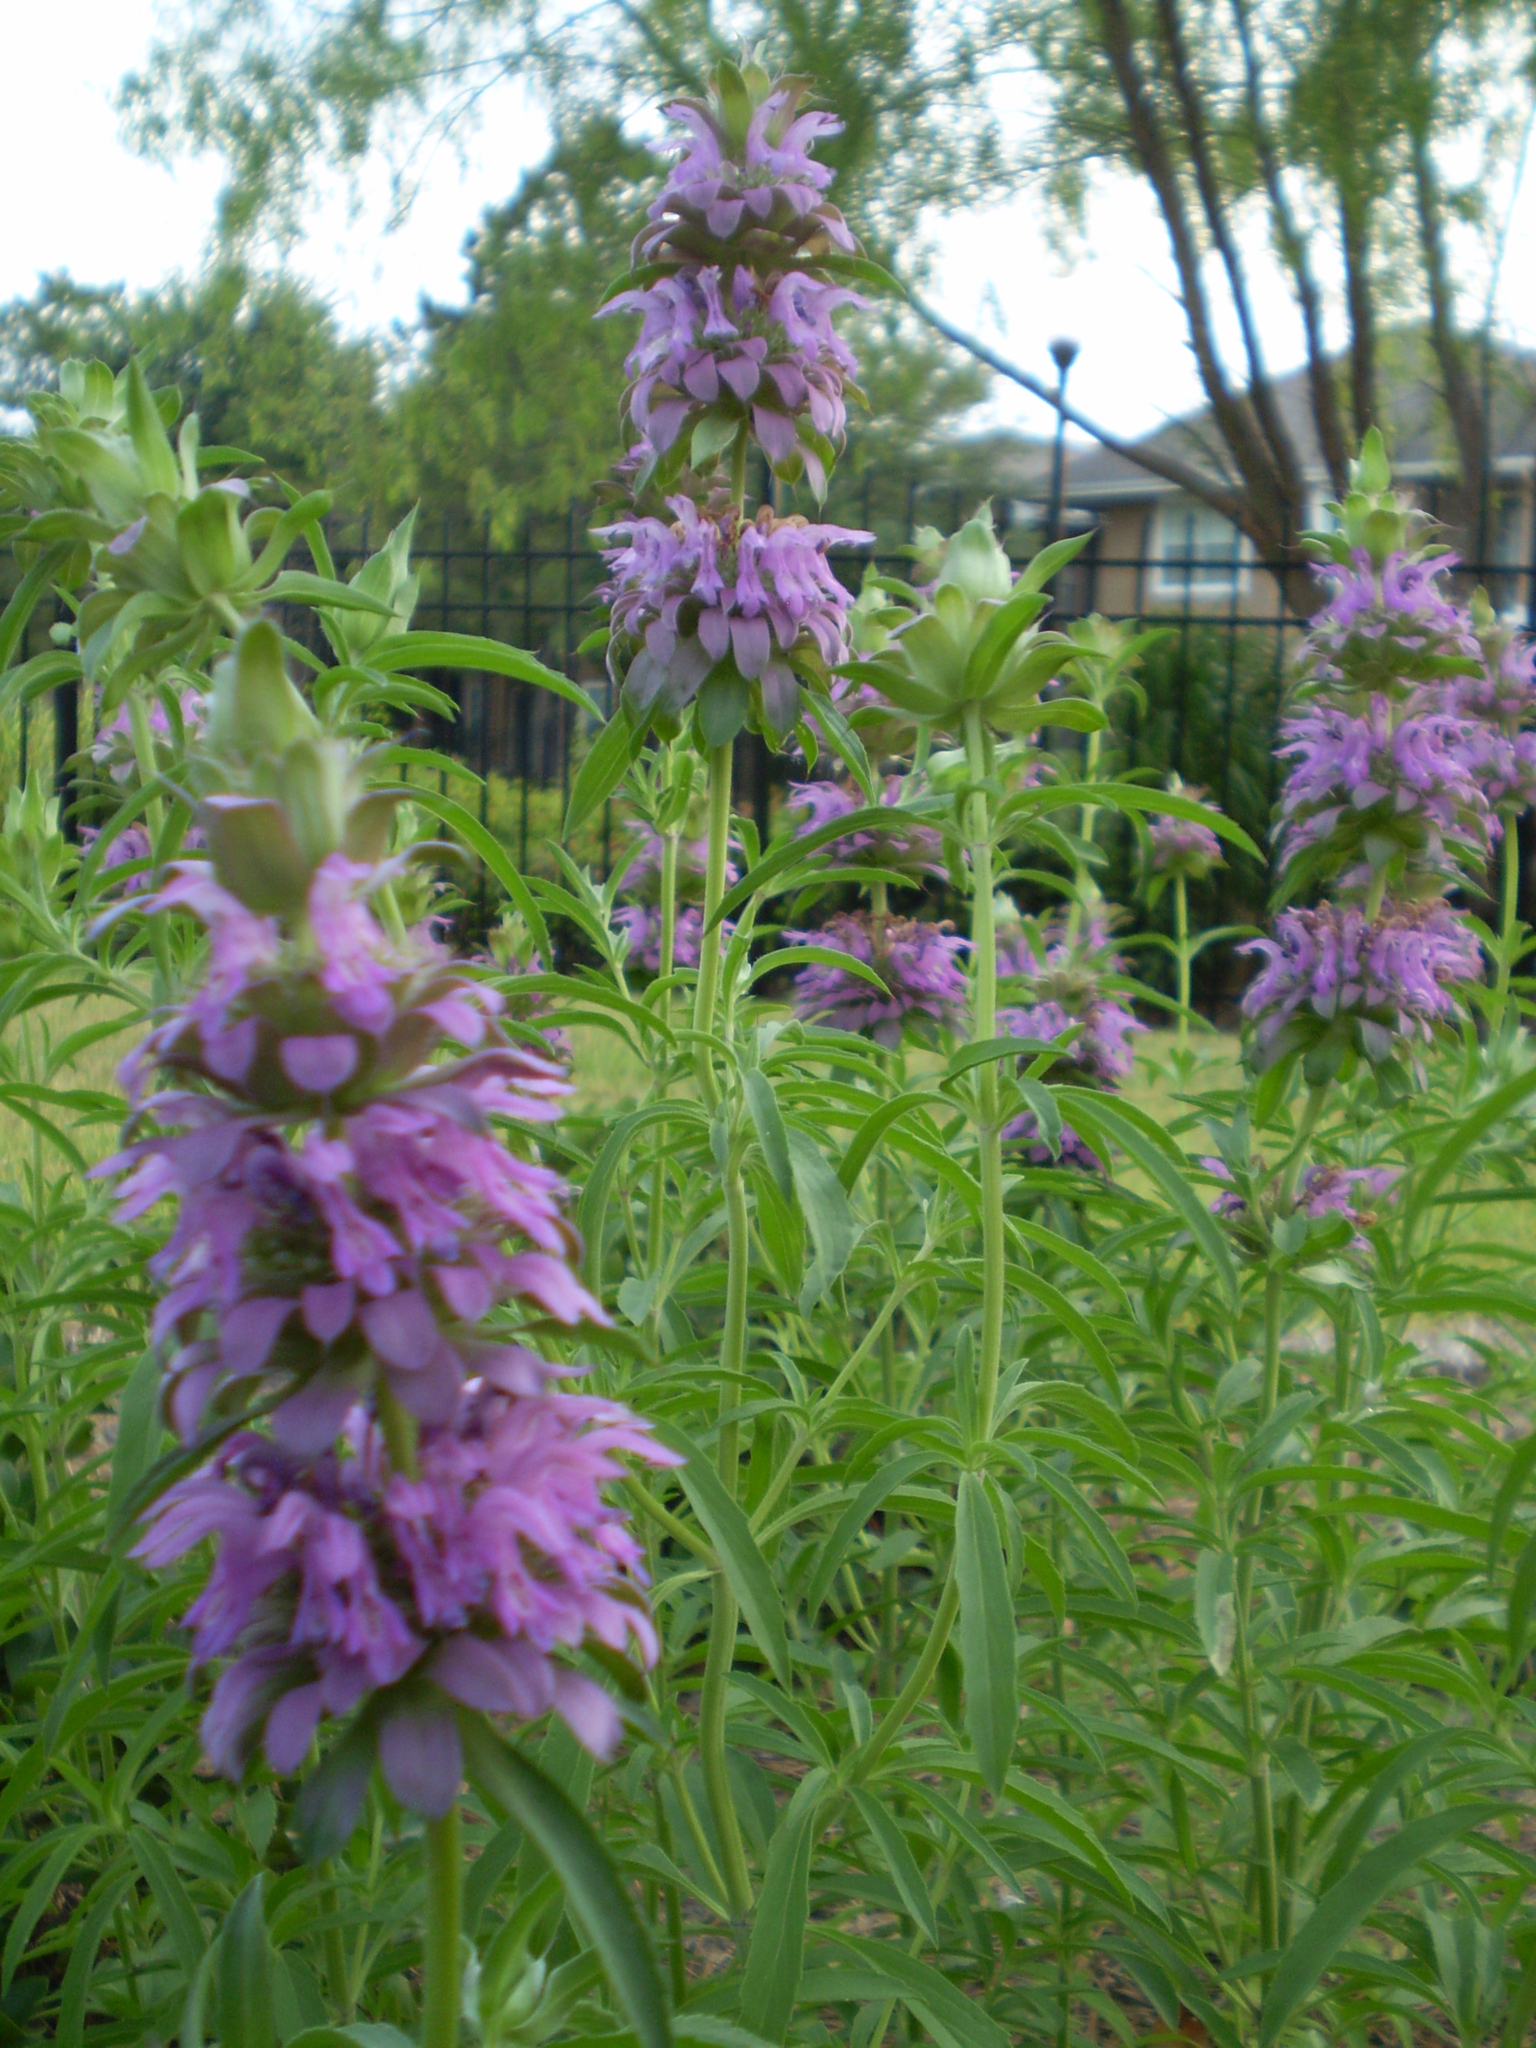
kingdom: Plantae
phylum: Tracheophyta
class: Magnoliopsida
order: Lamiales
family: Lamiaceae
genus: Monarda
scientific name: Monarda citriodora
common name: Lemon beebalm
